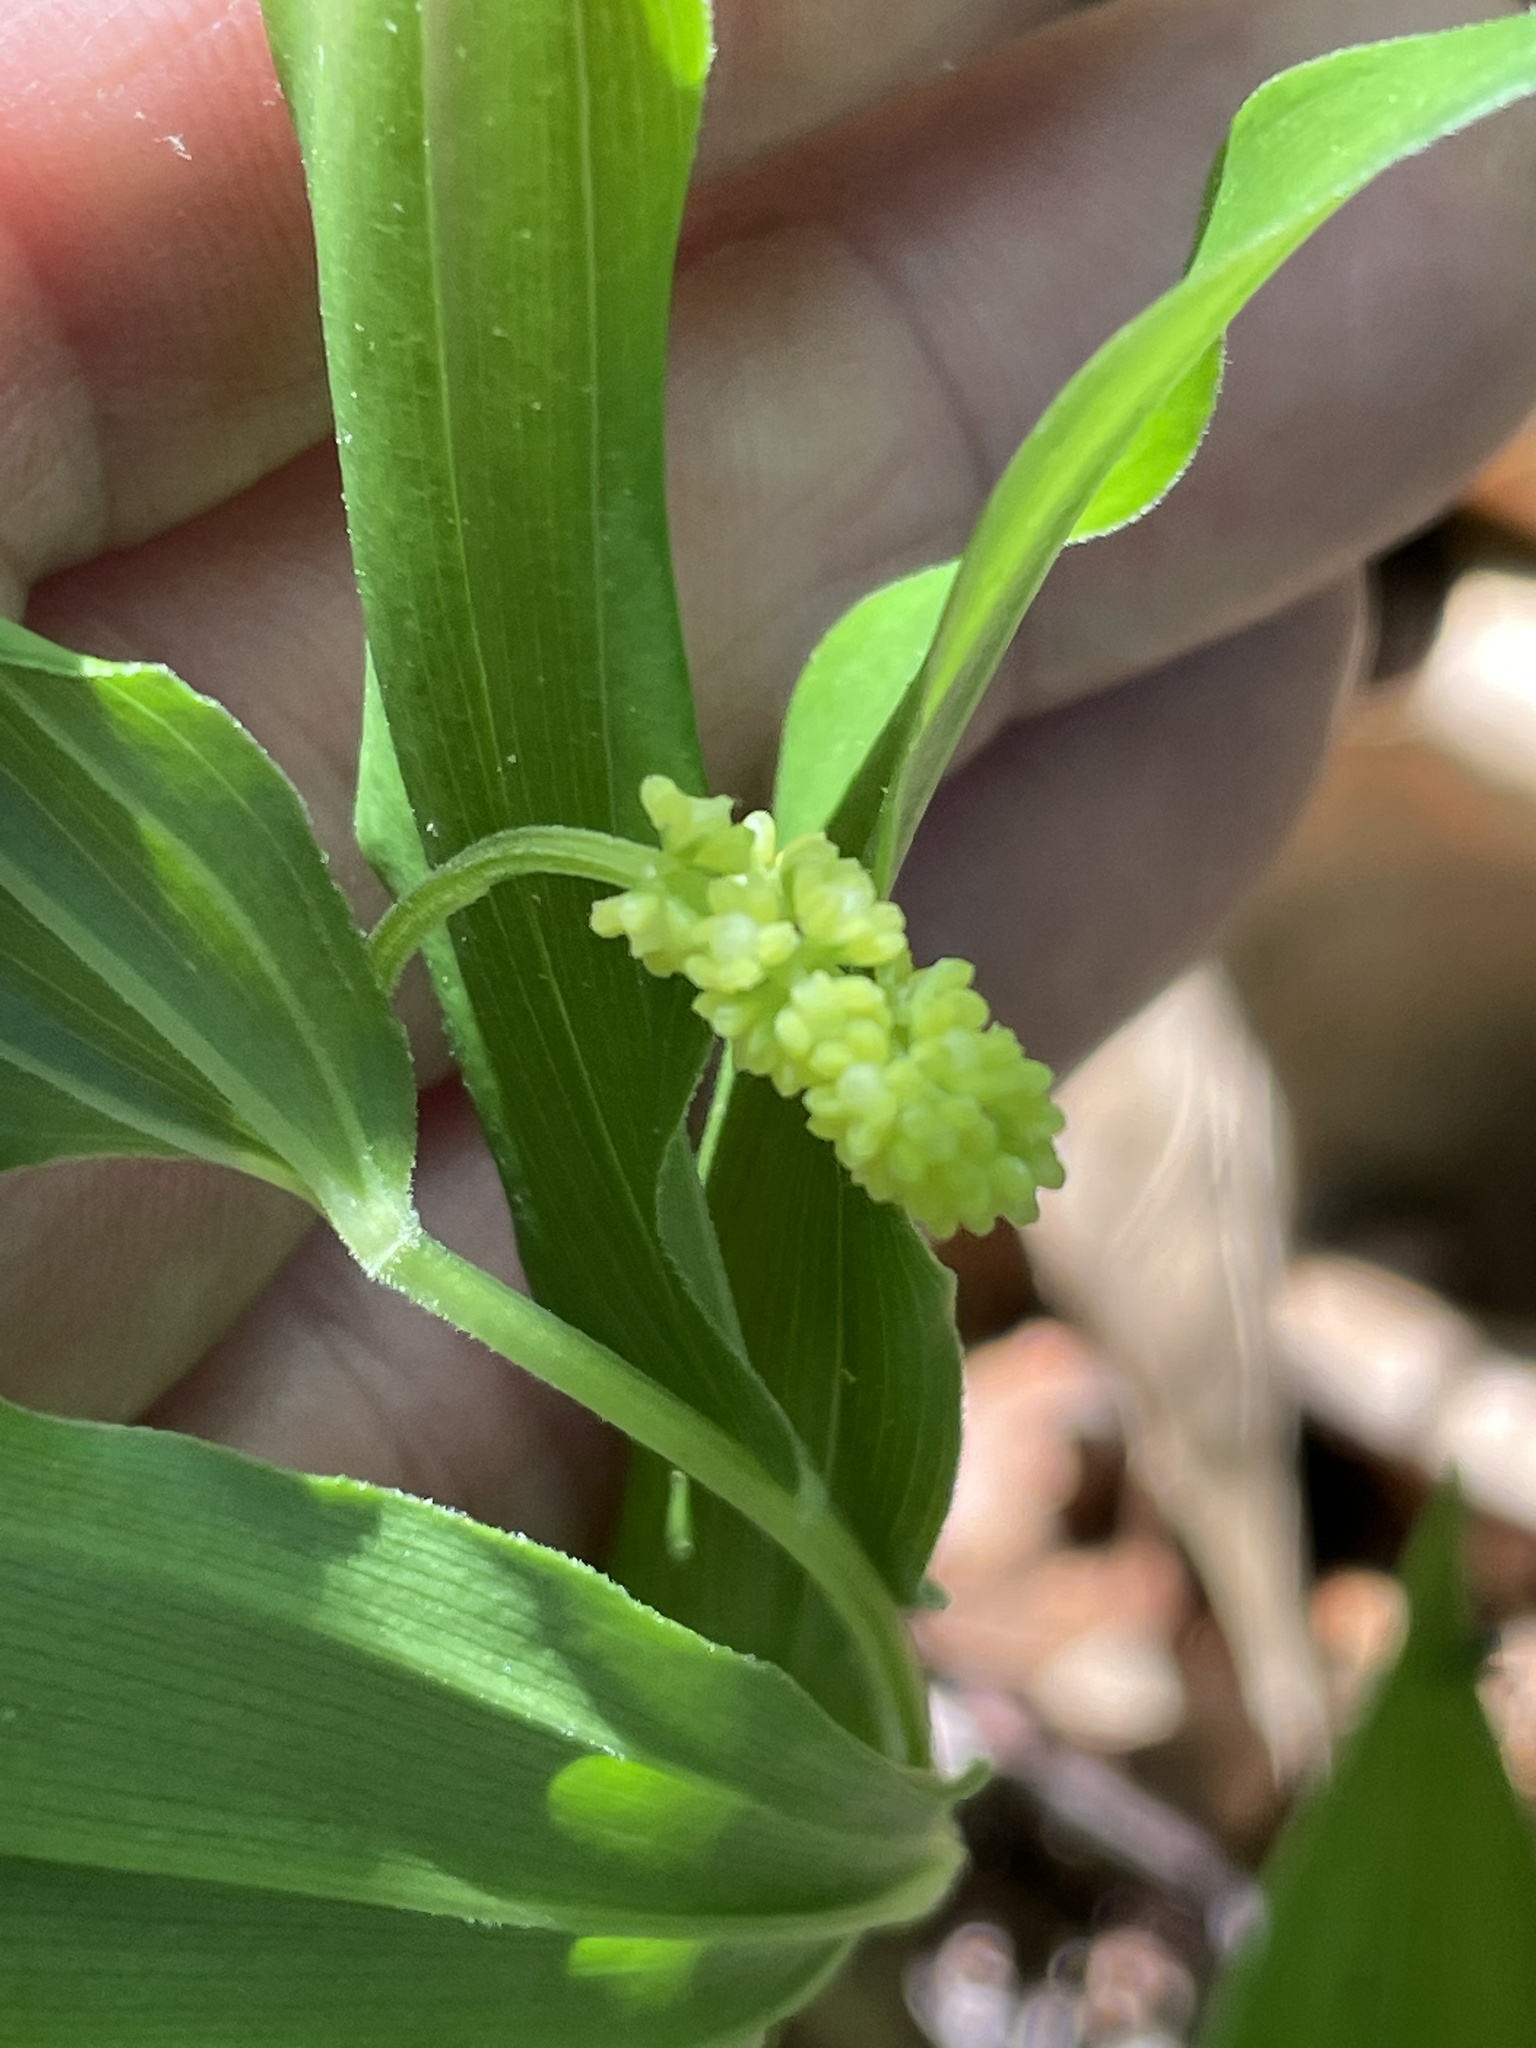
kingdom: Plantae
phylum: Tracheophyta
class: Liliopsida
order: Asparagales
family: Asparagaceae
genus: Maianthemum
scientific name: Maianthemum racemosum
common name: False spikenard
